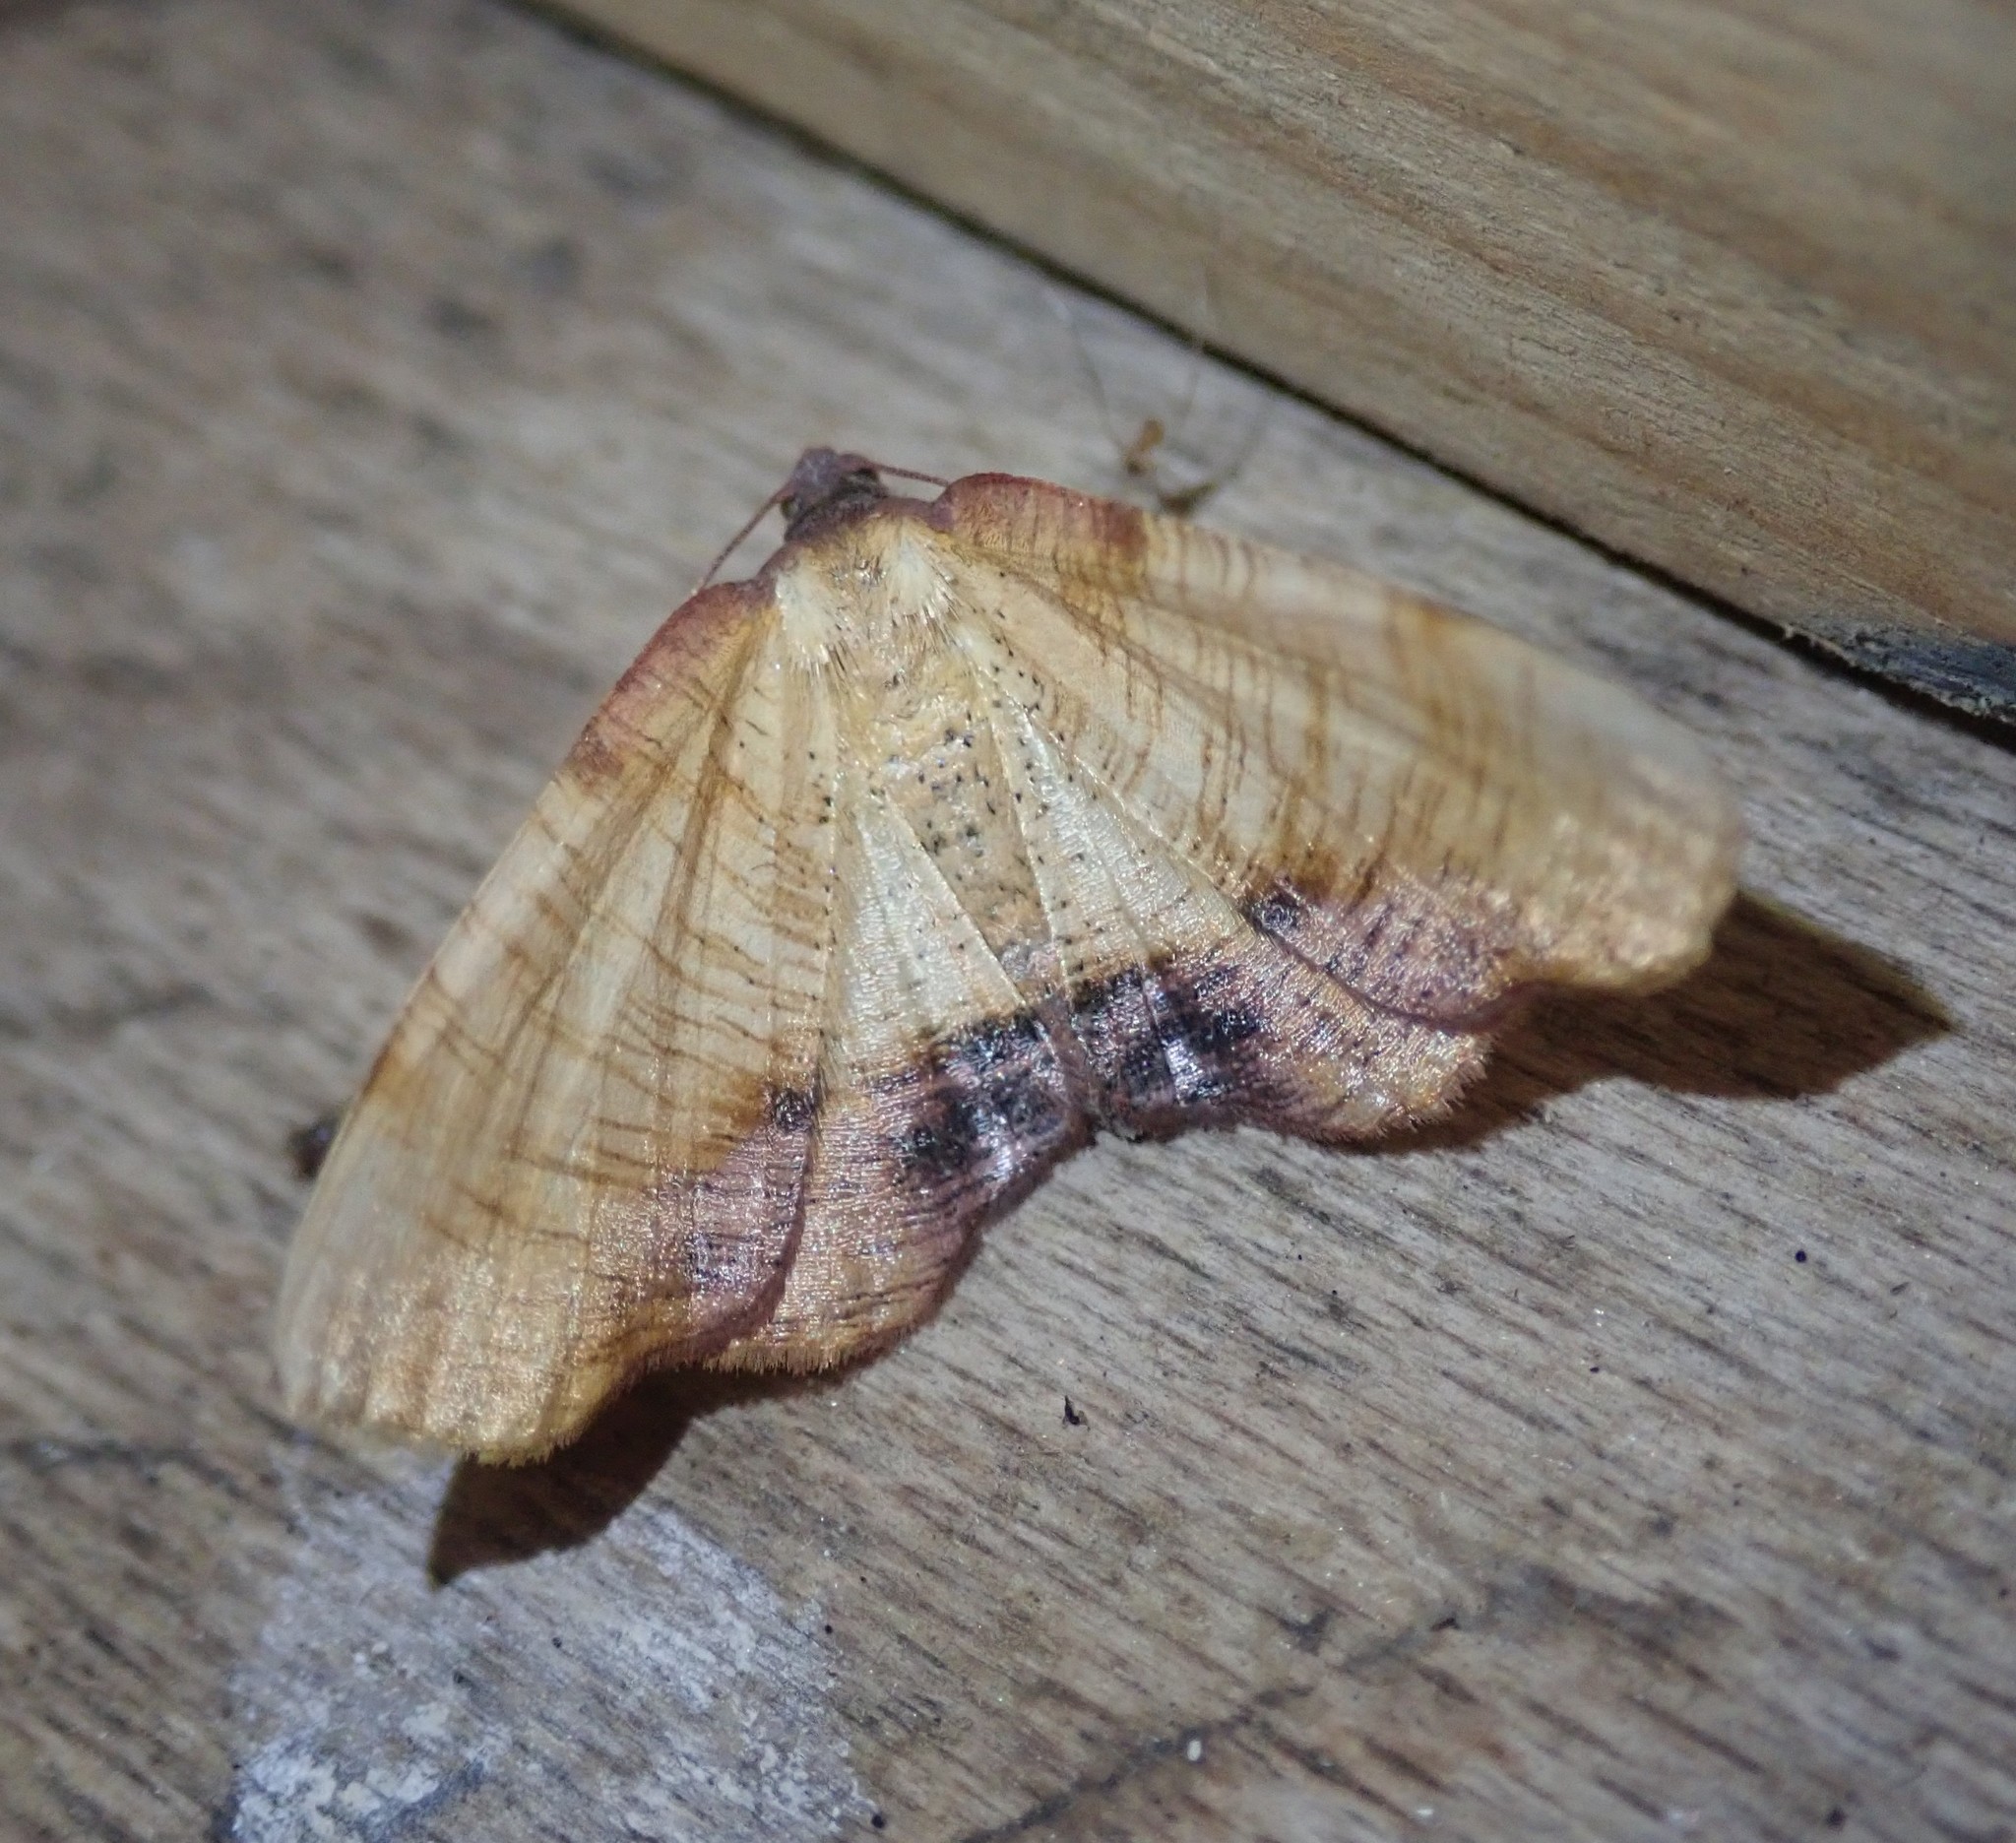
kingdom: Animalia
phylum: Arthropoda
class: Insecta
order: Lepidoptera
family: Geometridae
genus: Plagodis
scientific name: Plagodis dolabraria
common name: Scorched wing
